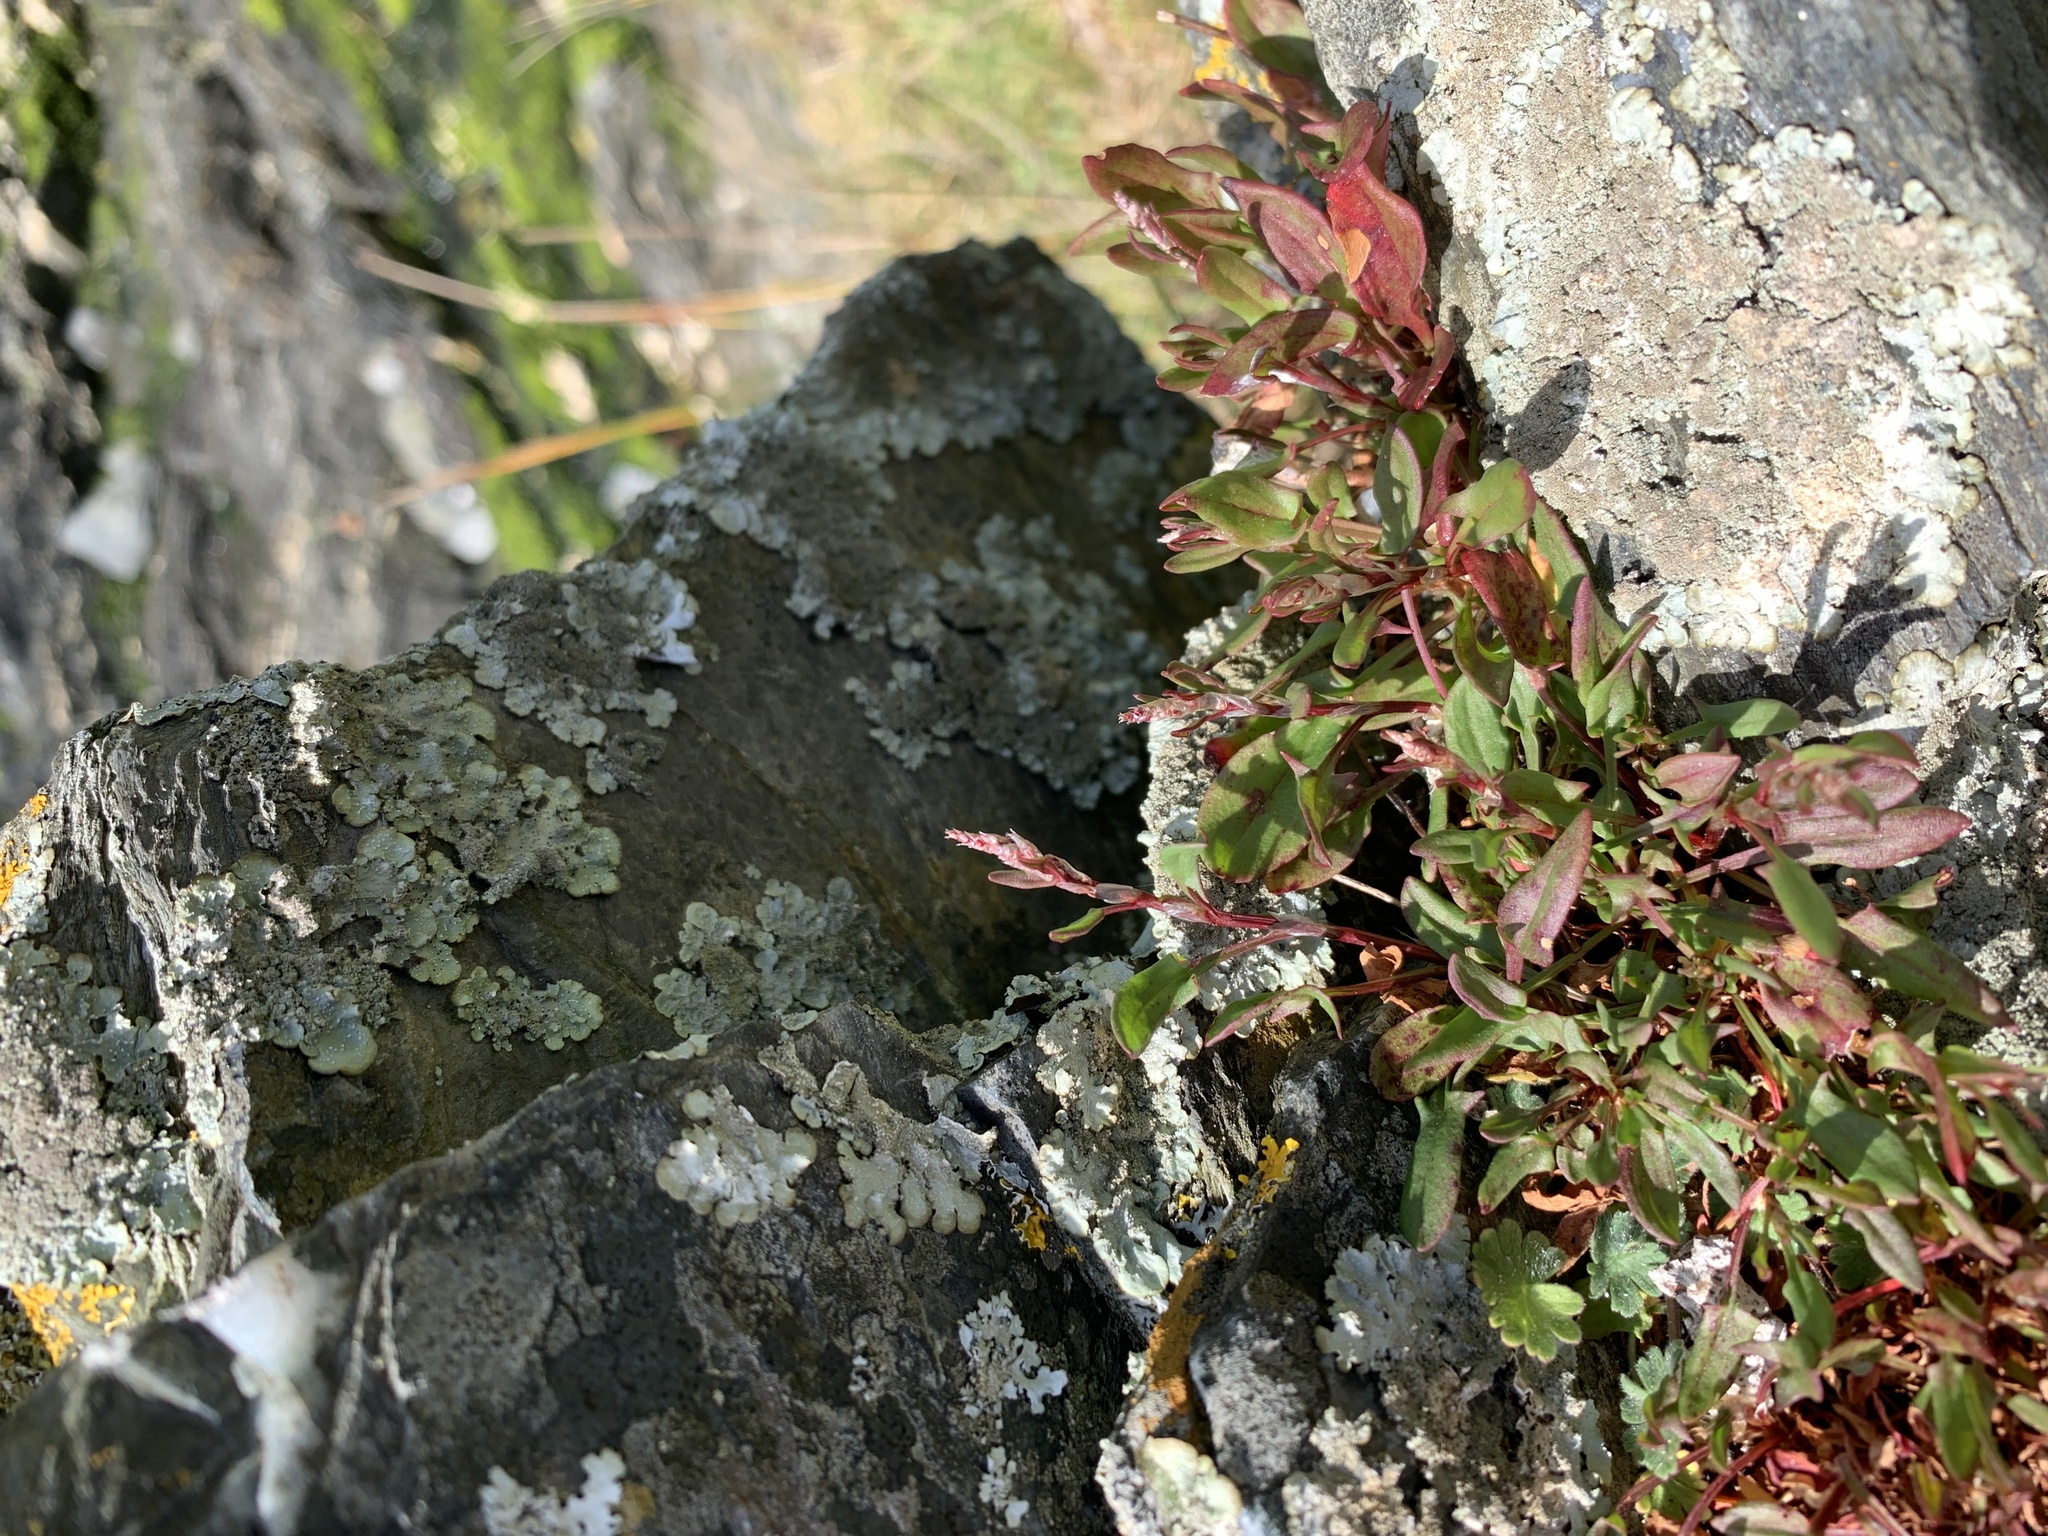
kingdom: Plantae
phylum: Tracheophyta
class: Magnoliopsida
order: Caryophyllales
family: Polygonaceae
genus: Rumex
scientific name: Rumex acetosella
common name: Common sheep sorrel
